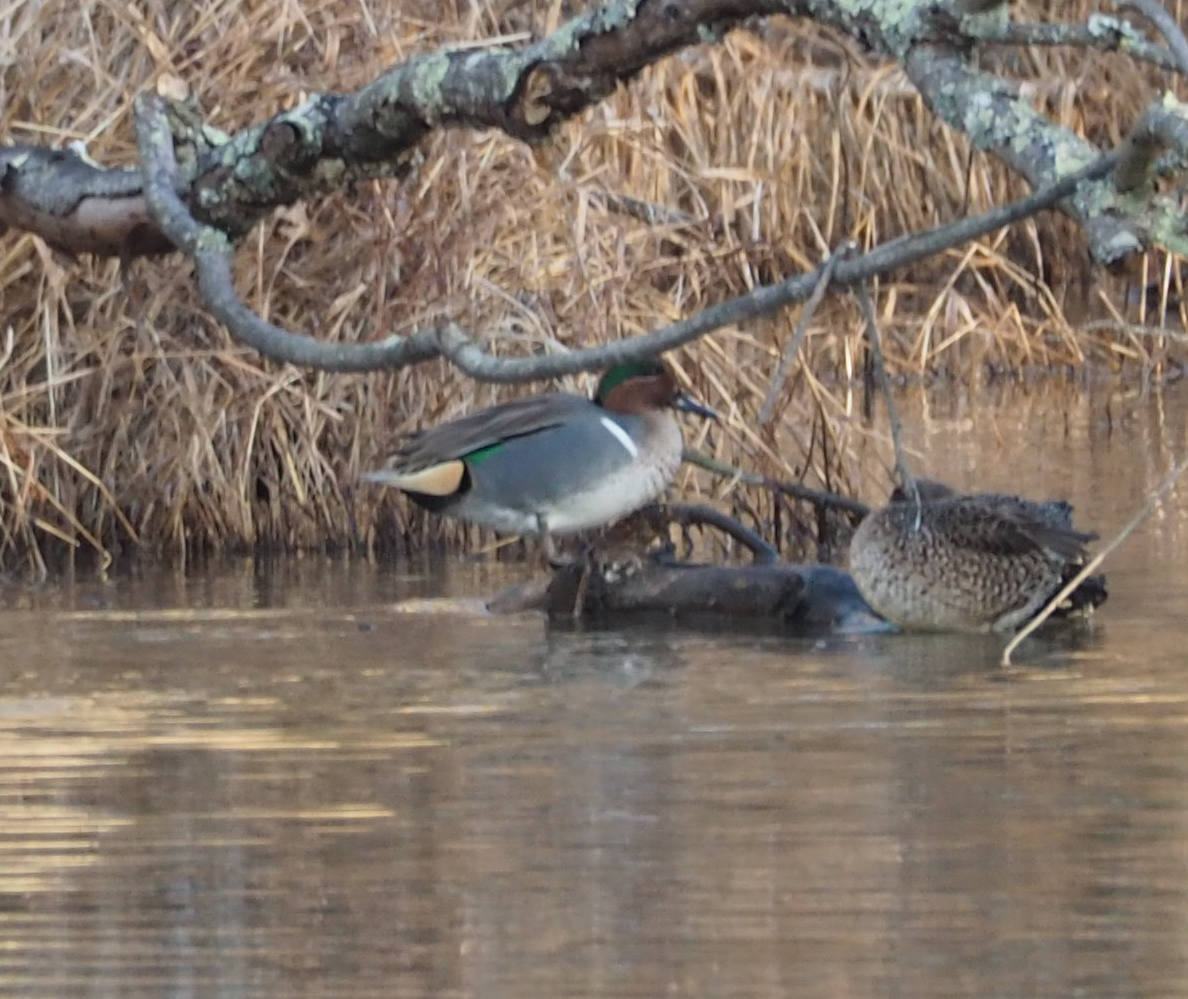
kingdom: Animalia
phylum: Chordata
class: Aves
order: Anseriformes
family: Anatidae
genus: Anas
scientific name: Anas crecca
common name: Eurasian teal
